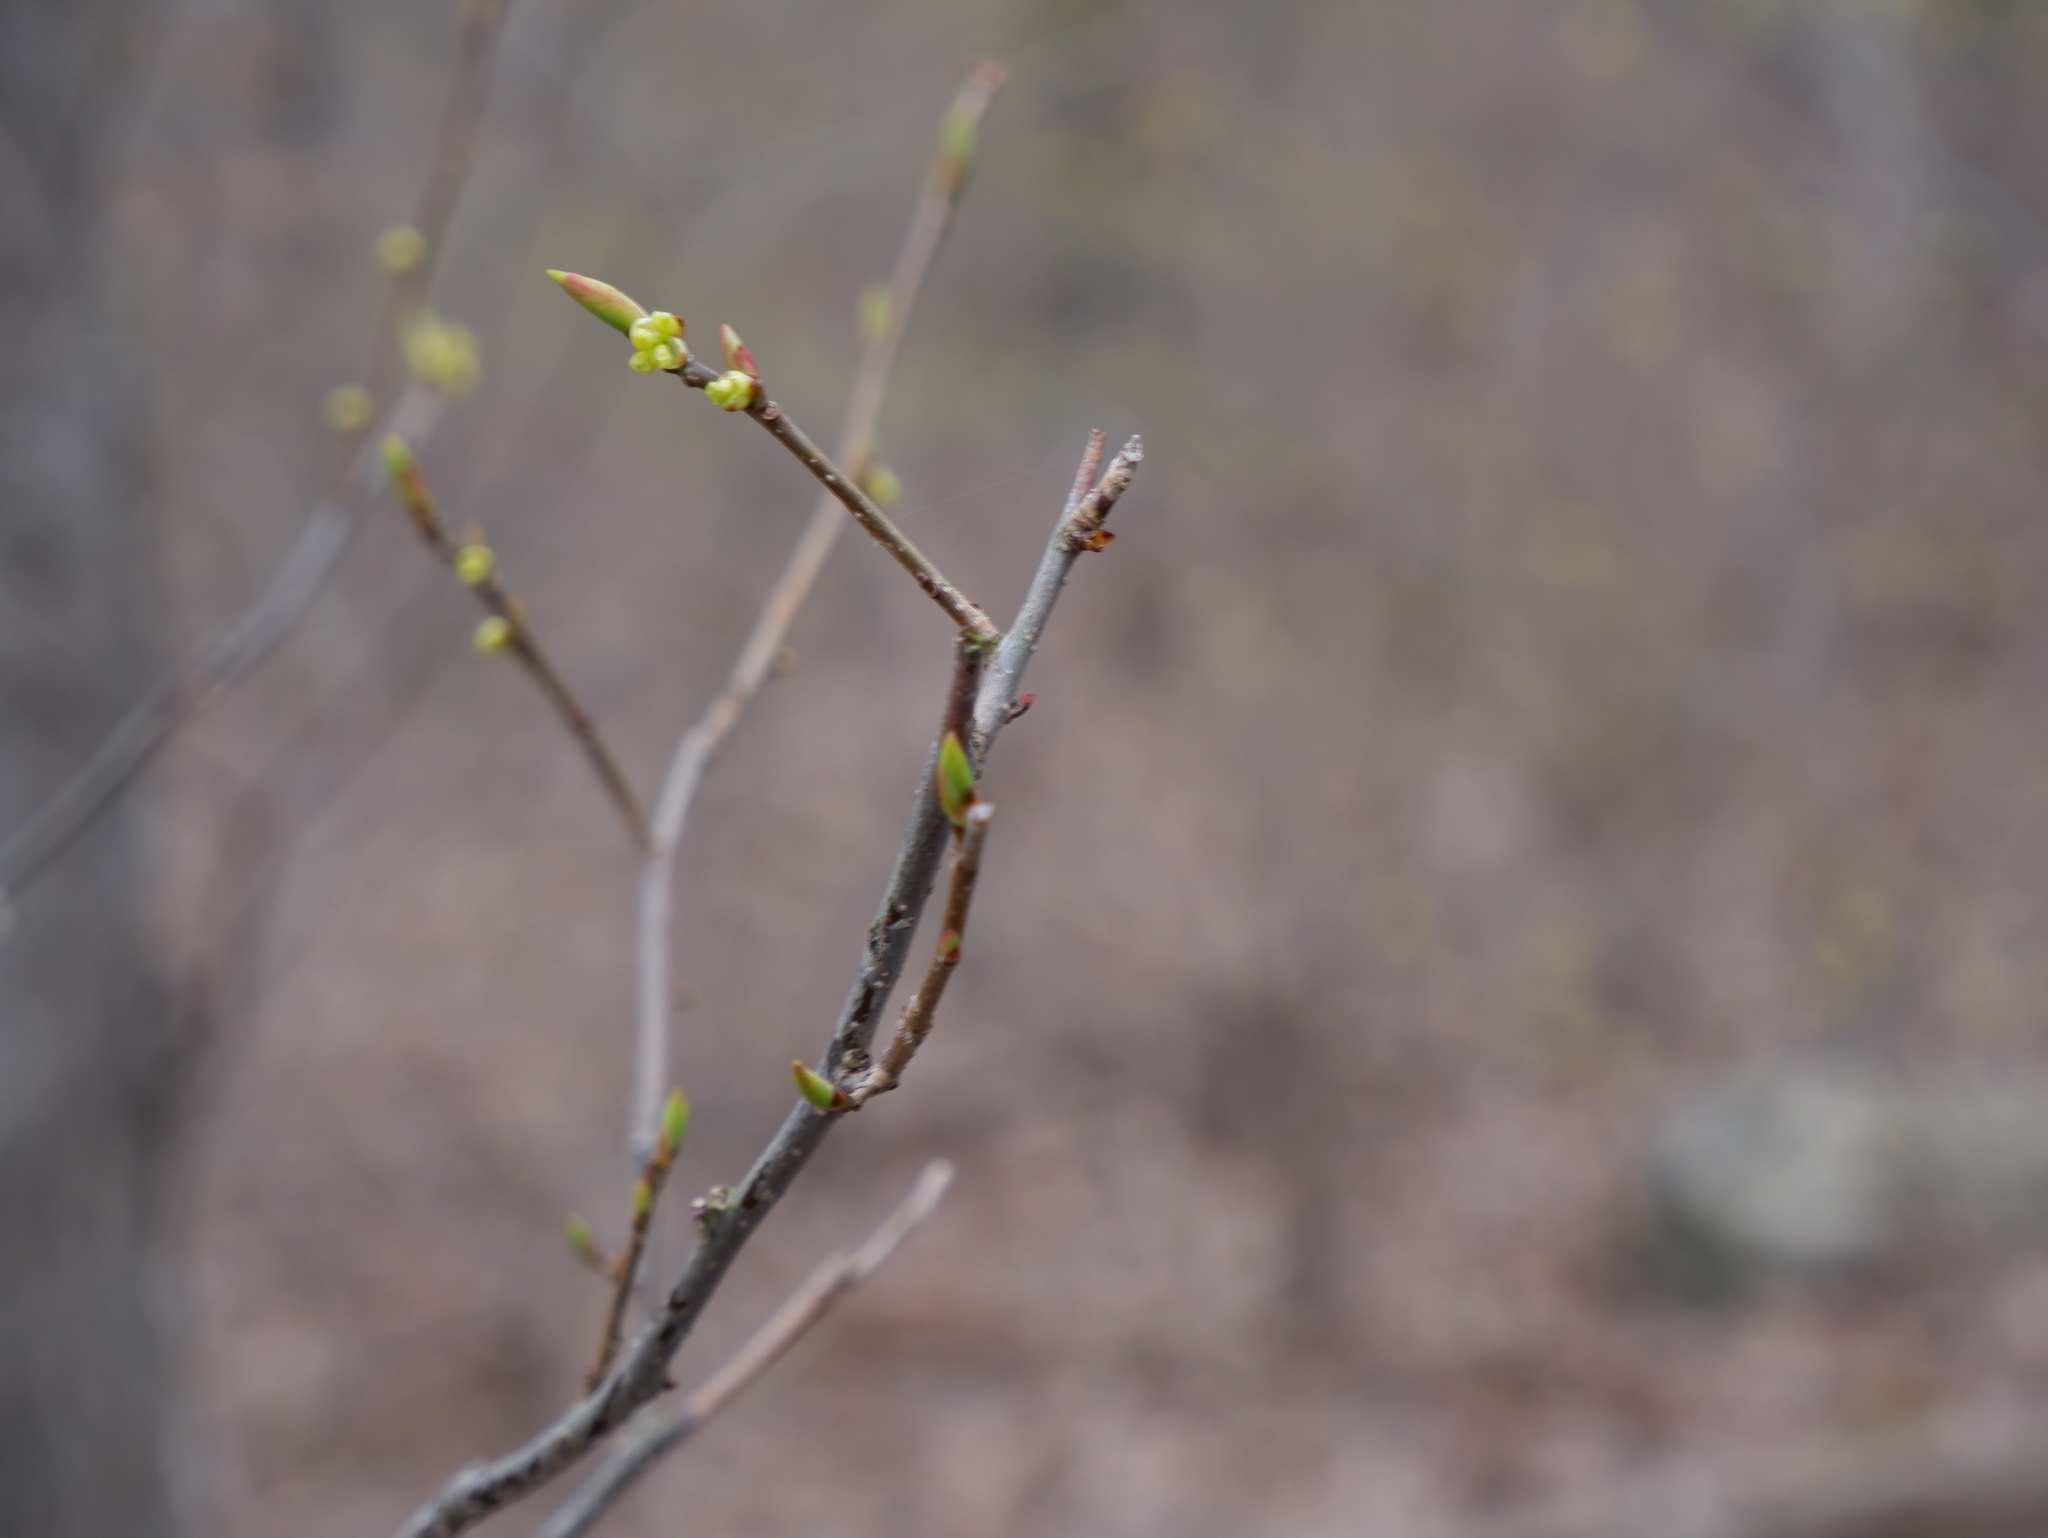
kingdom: Plantae
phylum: Tracheophyta
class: Magnoliopsida
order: Laurales
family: Lauraceae
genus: Lindera
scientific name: Lindera benzoin
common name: Spicebush
